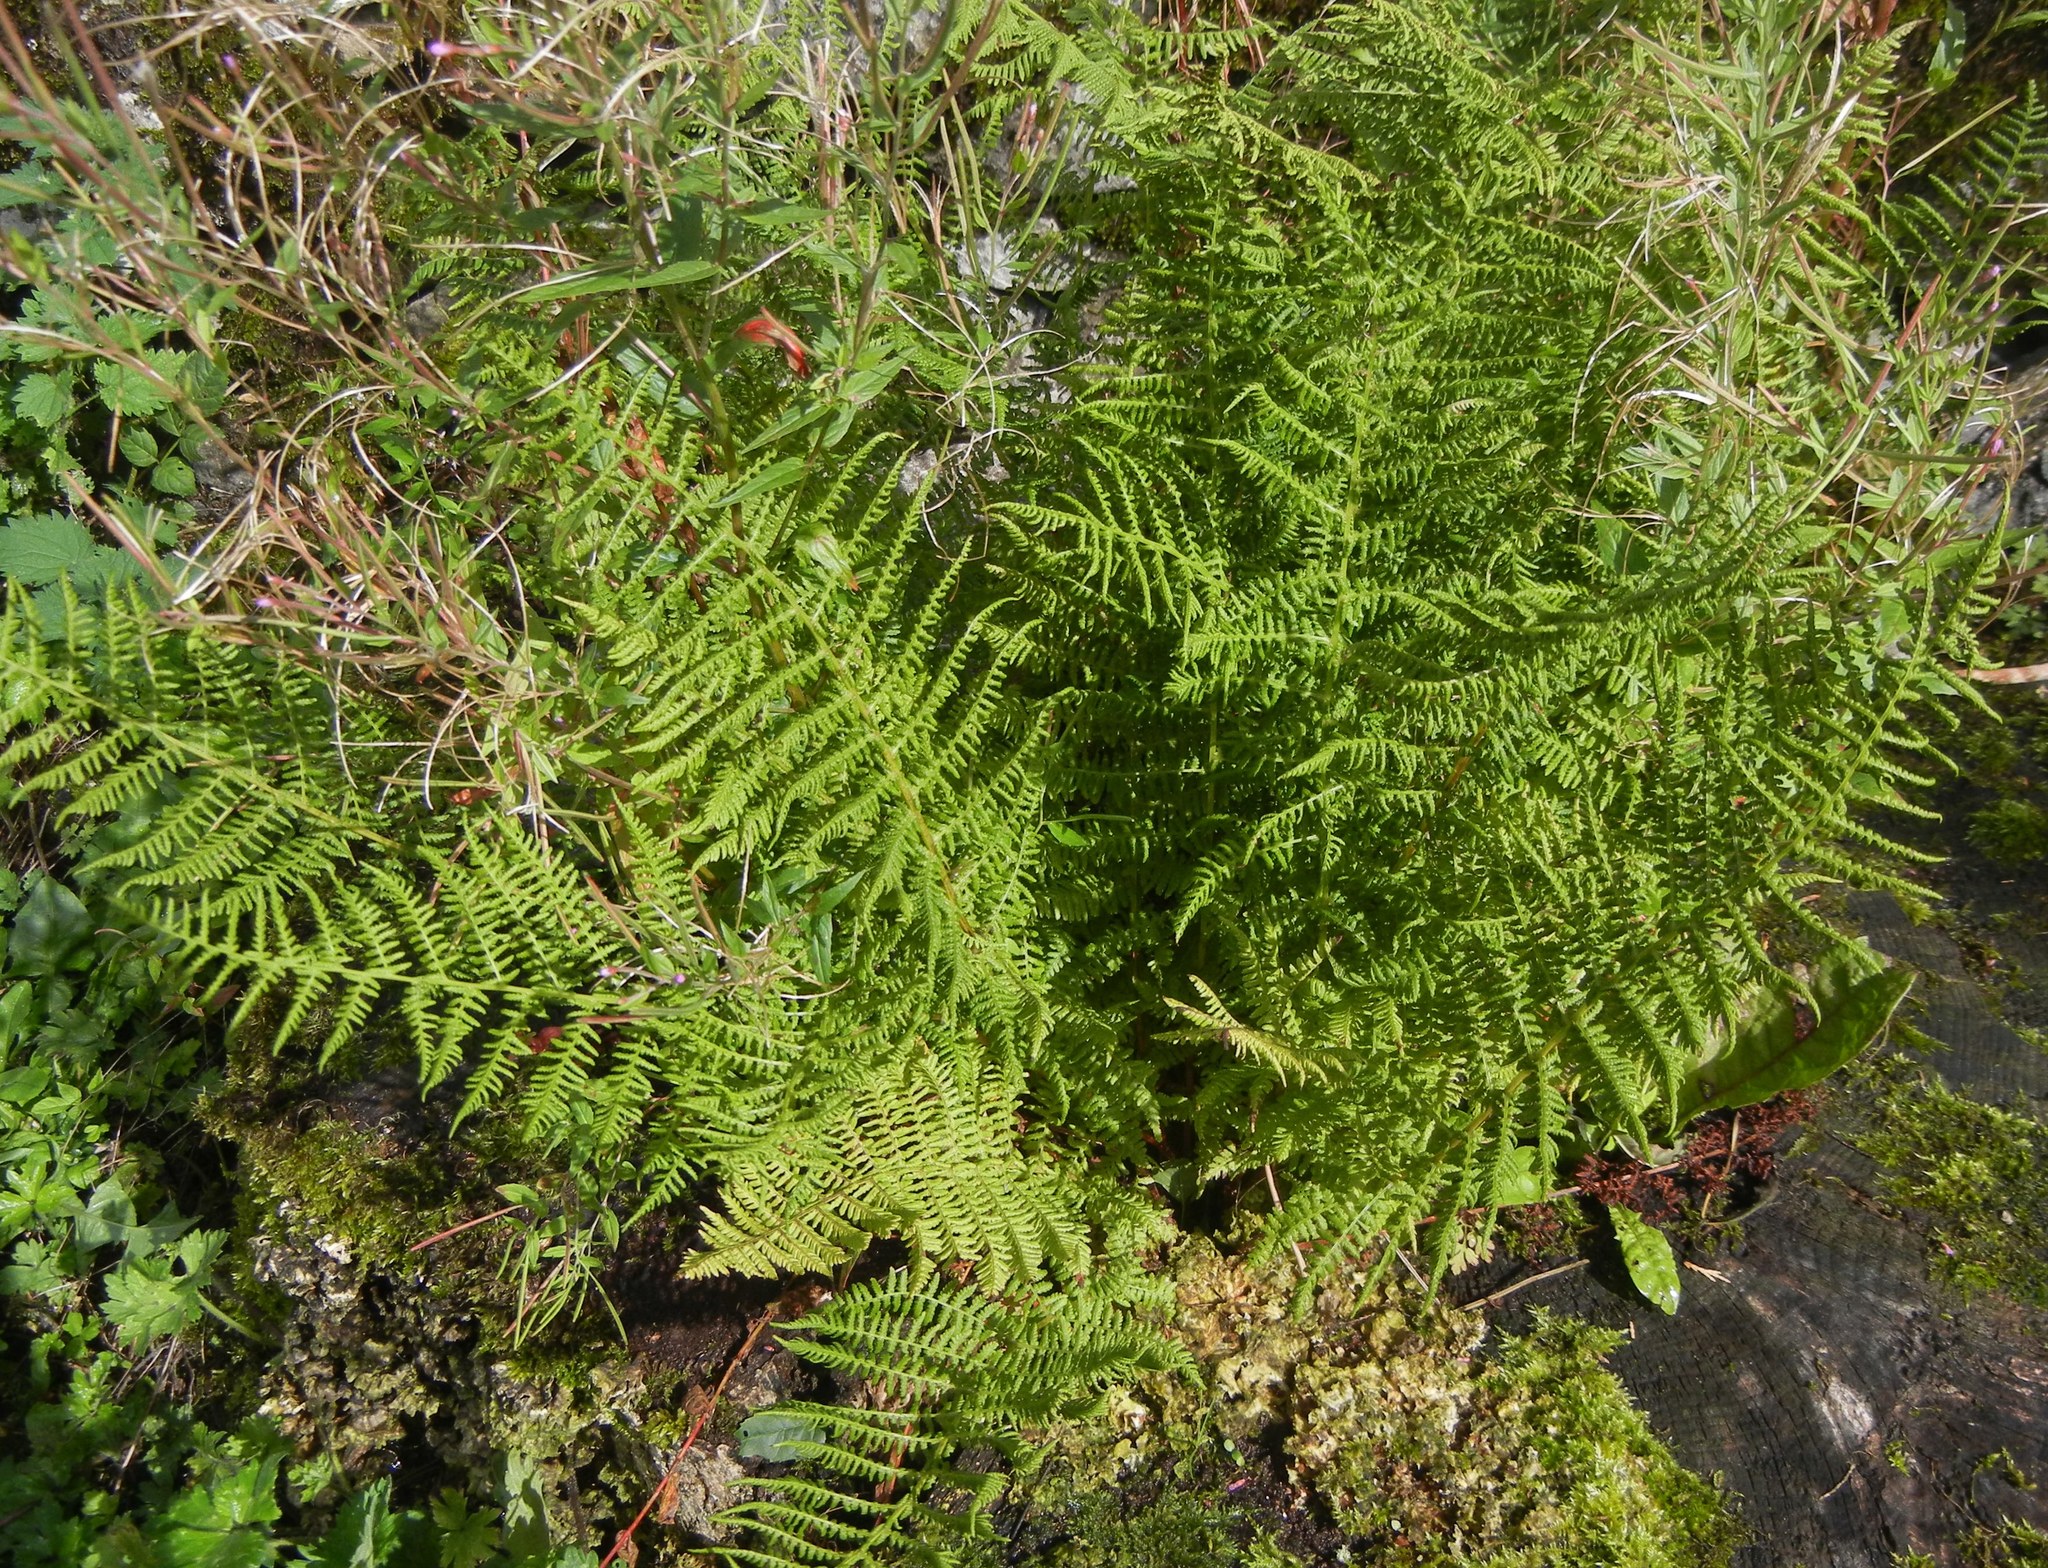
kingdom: Plantae
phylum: Tracheophyta
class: Polypodiopsida
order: Polypodiales
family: Athyriaceae
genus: Athyrium
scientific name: Athyrium filix-femina
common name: Lady fern
